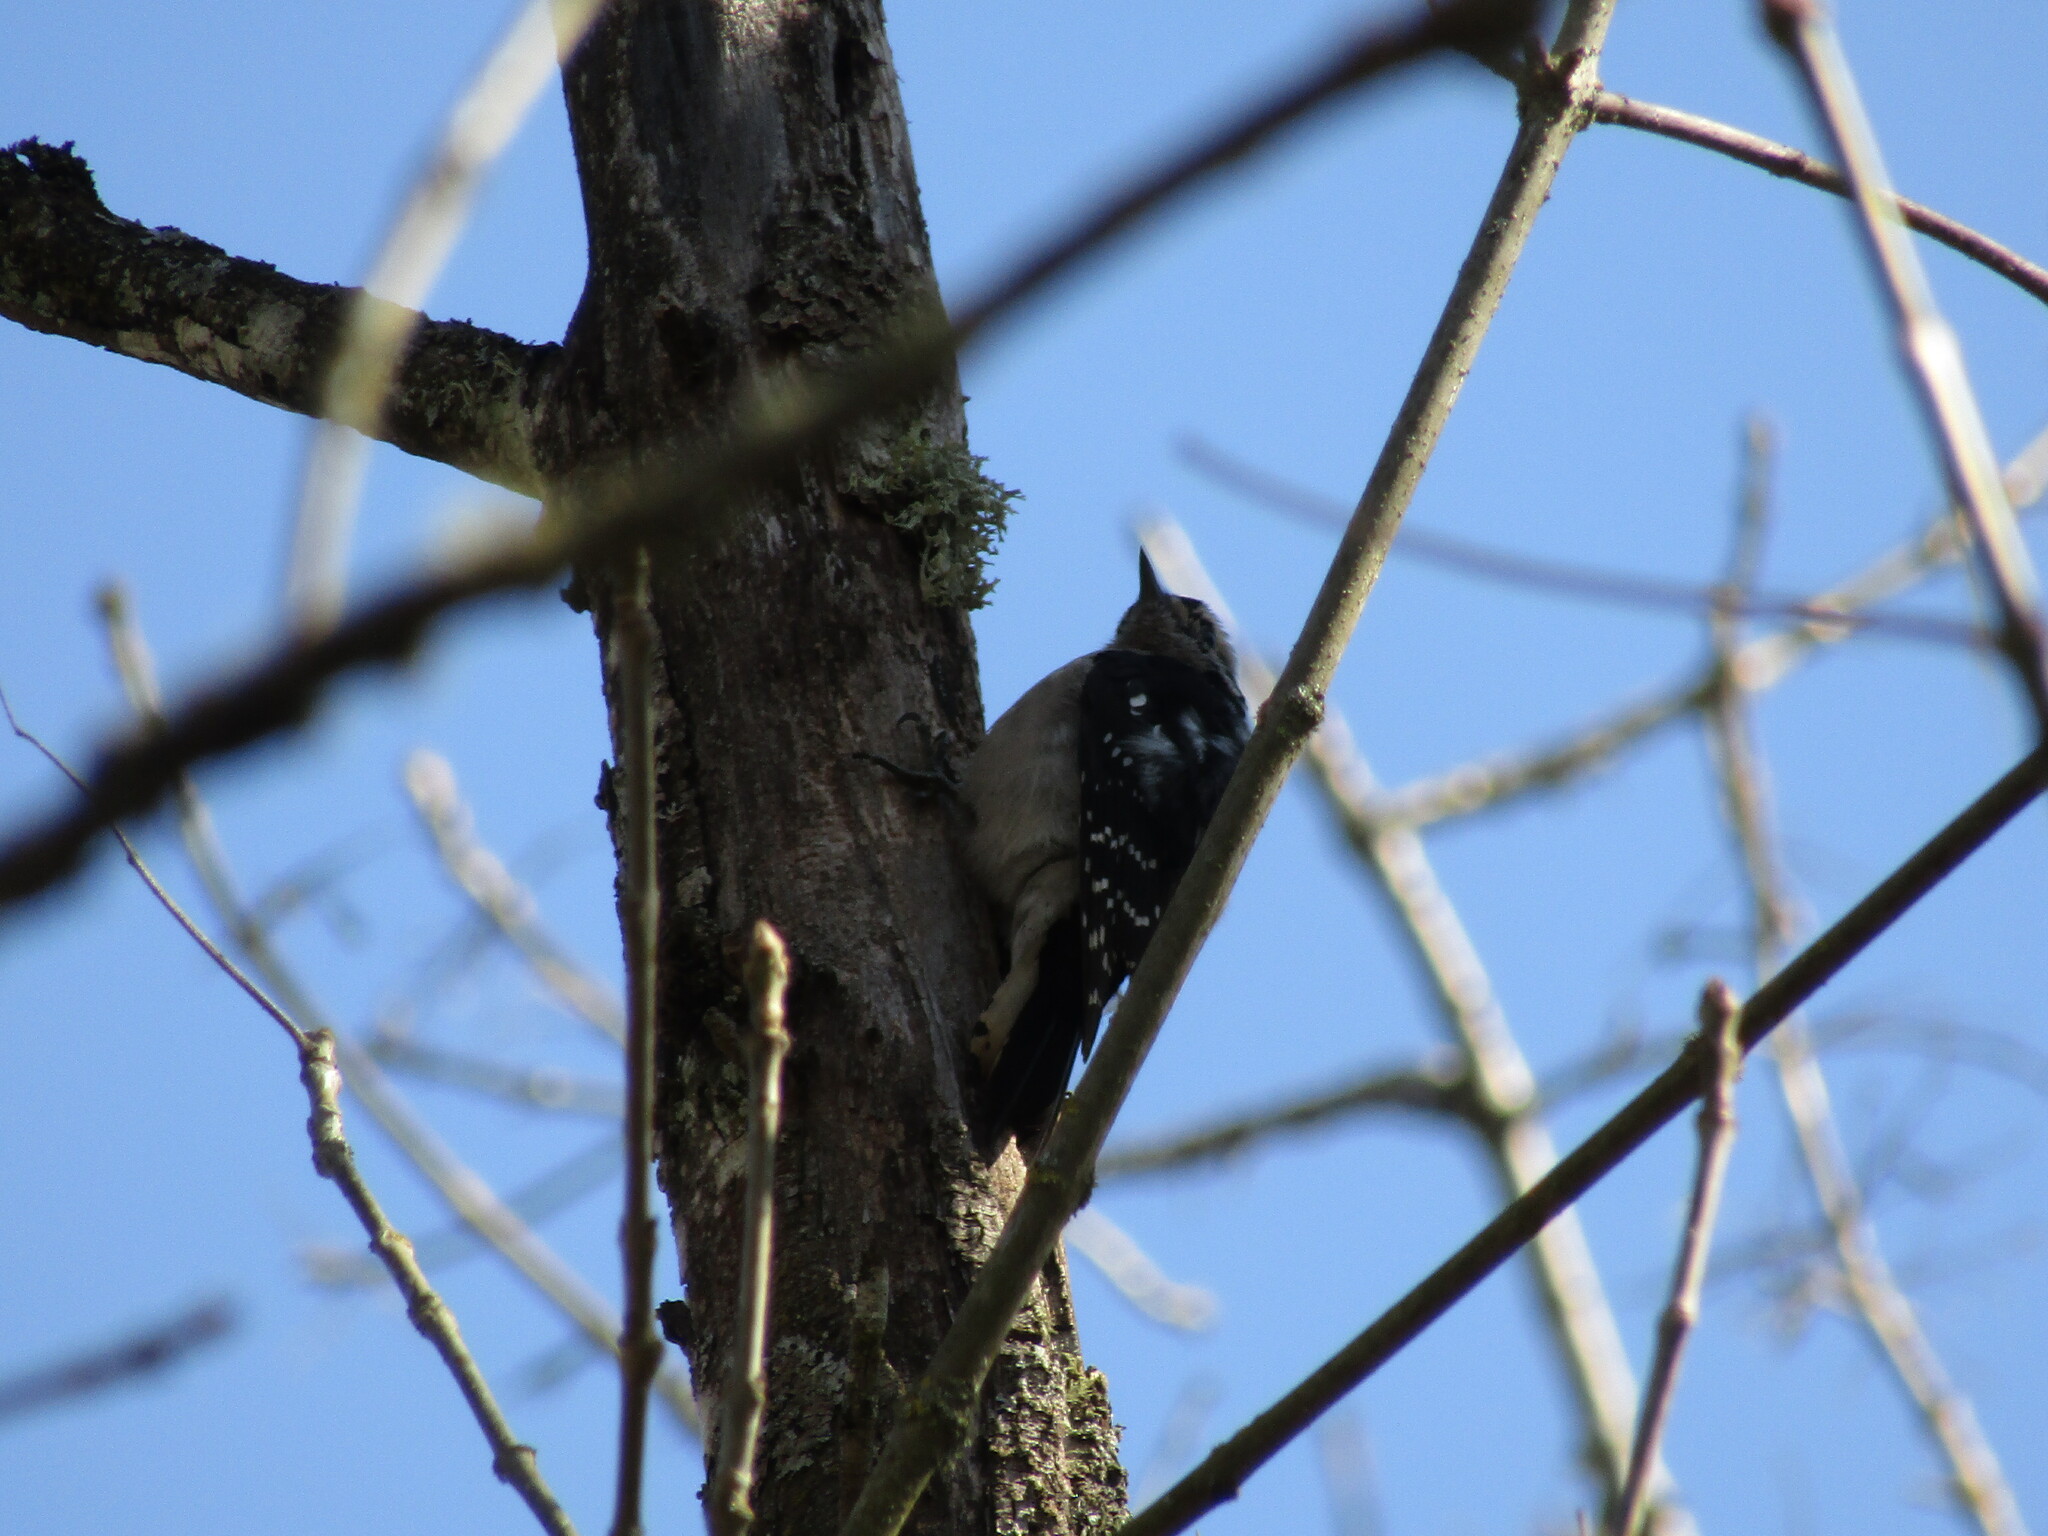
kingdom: Animalia
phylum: Chordata
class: Aves
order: Piciformes
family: Picidae
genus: Dryobates
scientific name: Dryobates pubescens
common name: Downy woodpecker
